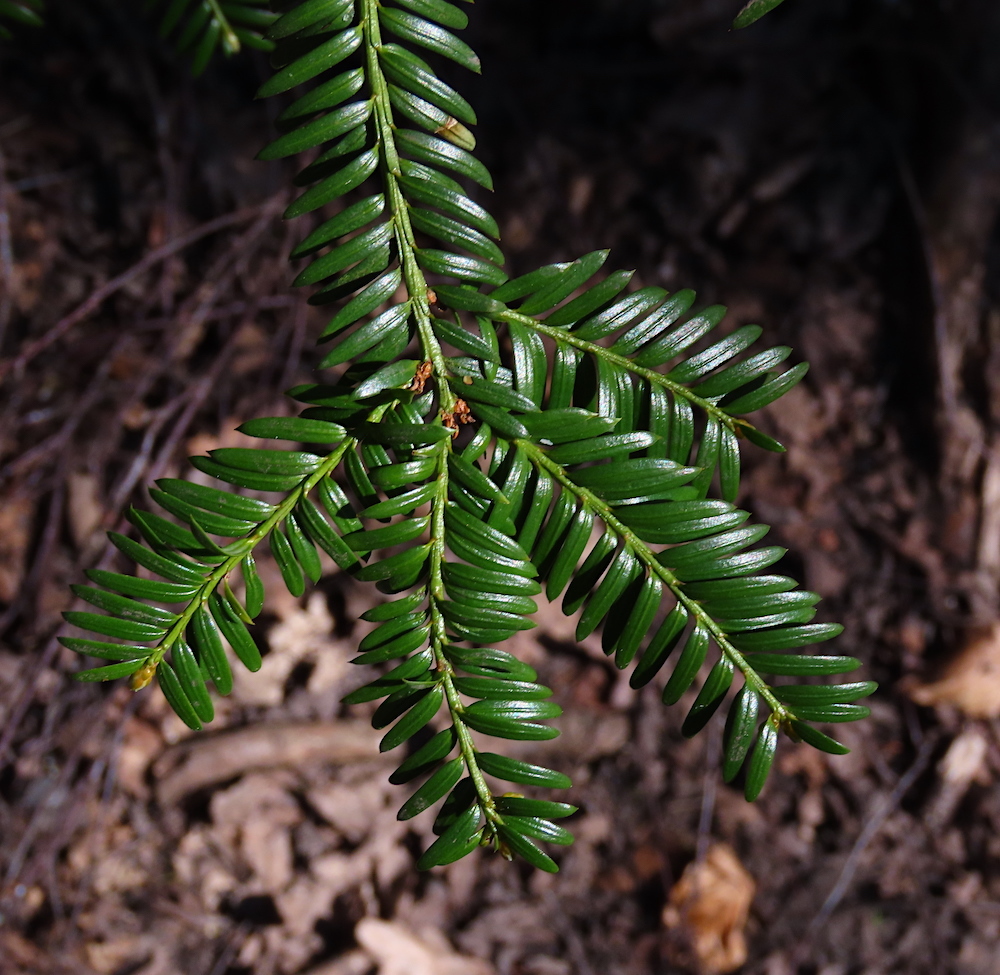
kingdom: Plantae
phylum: Tracheophyta
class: Pinopsida
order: Pinales
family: Taxaceae
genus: Taxus
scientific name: Taxus baccata
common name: Yew
